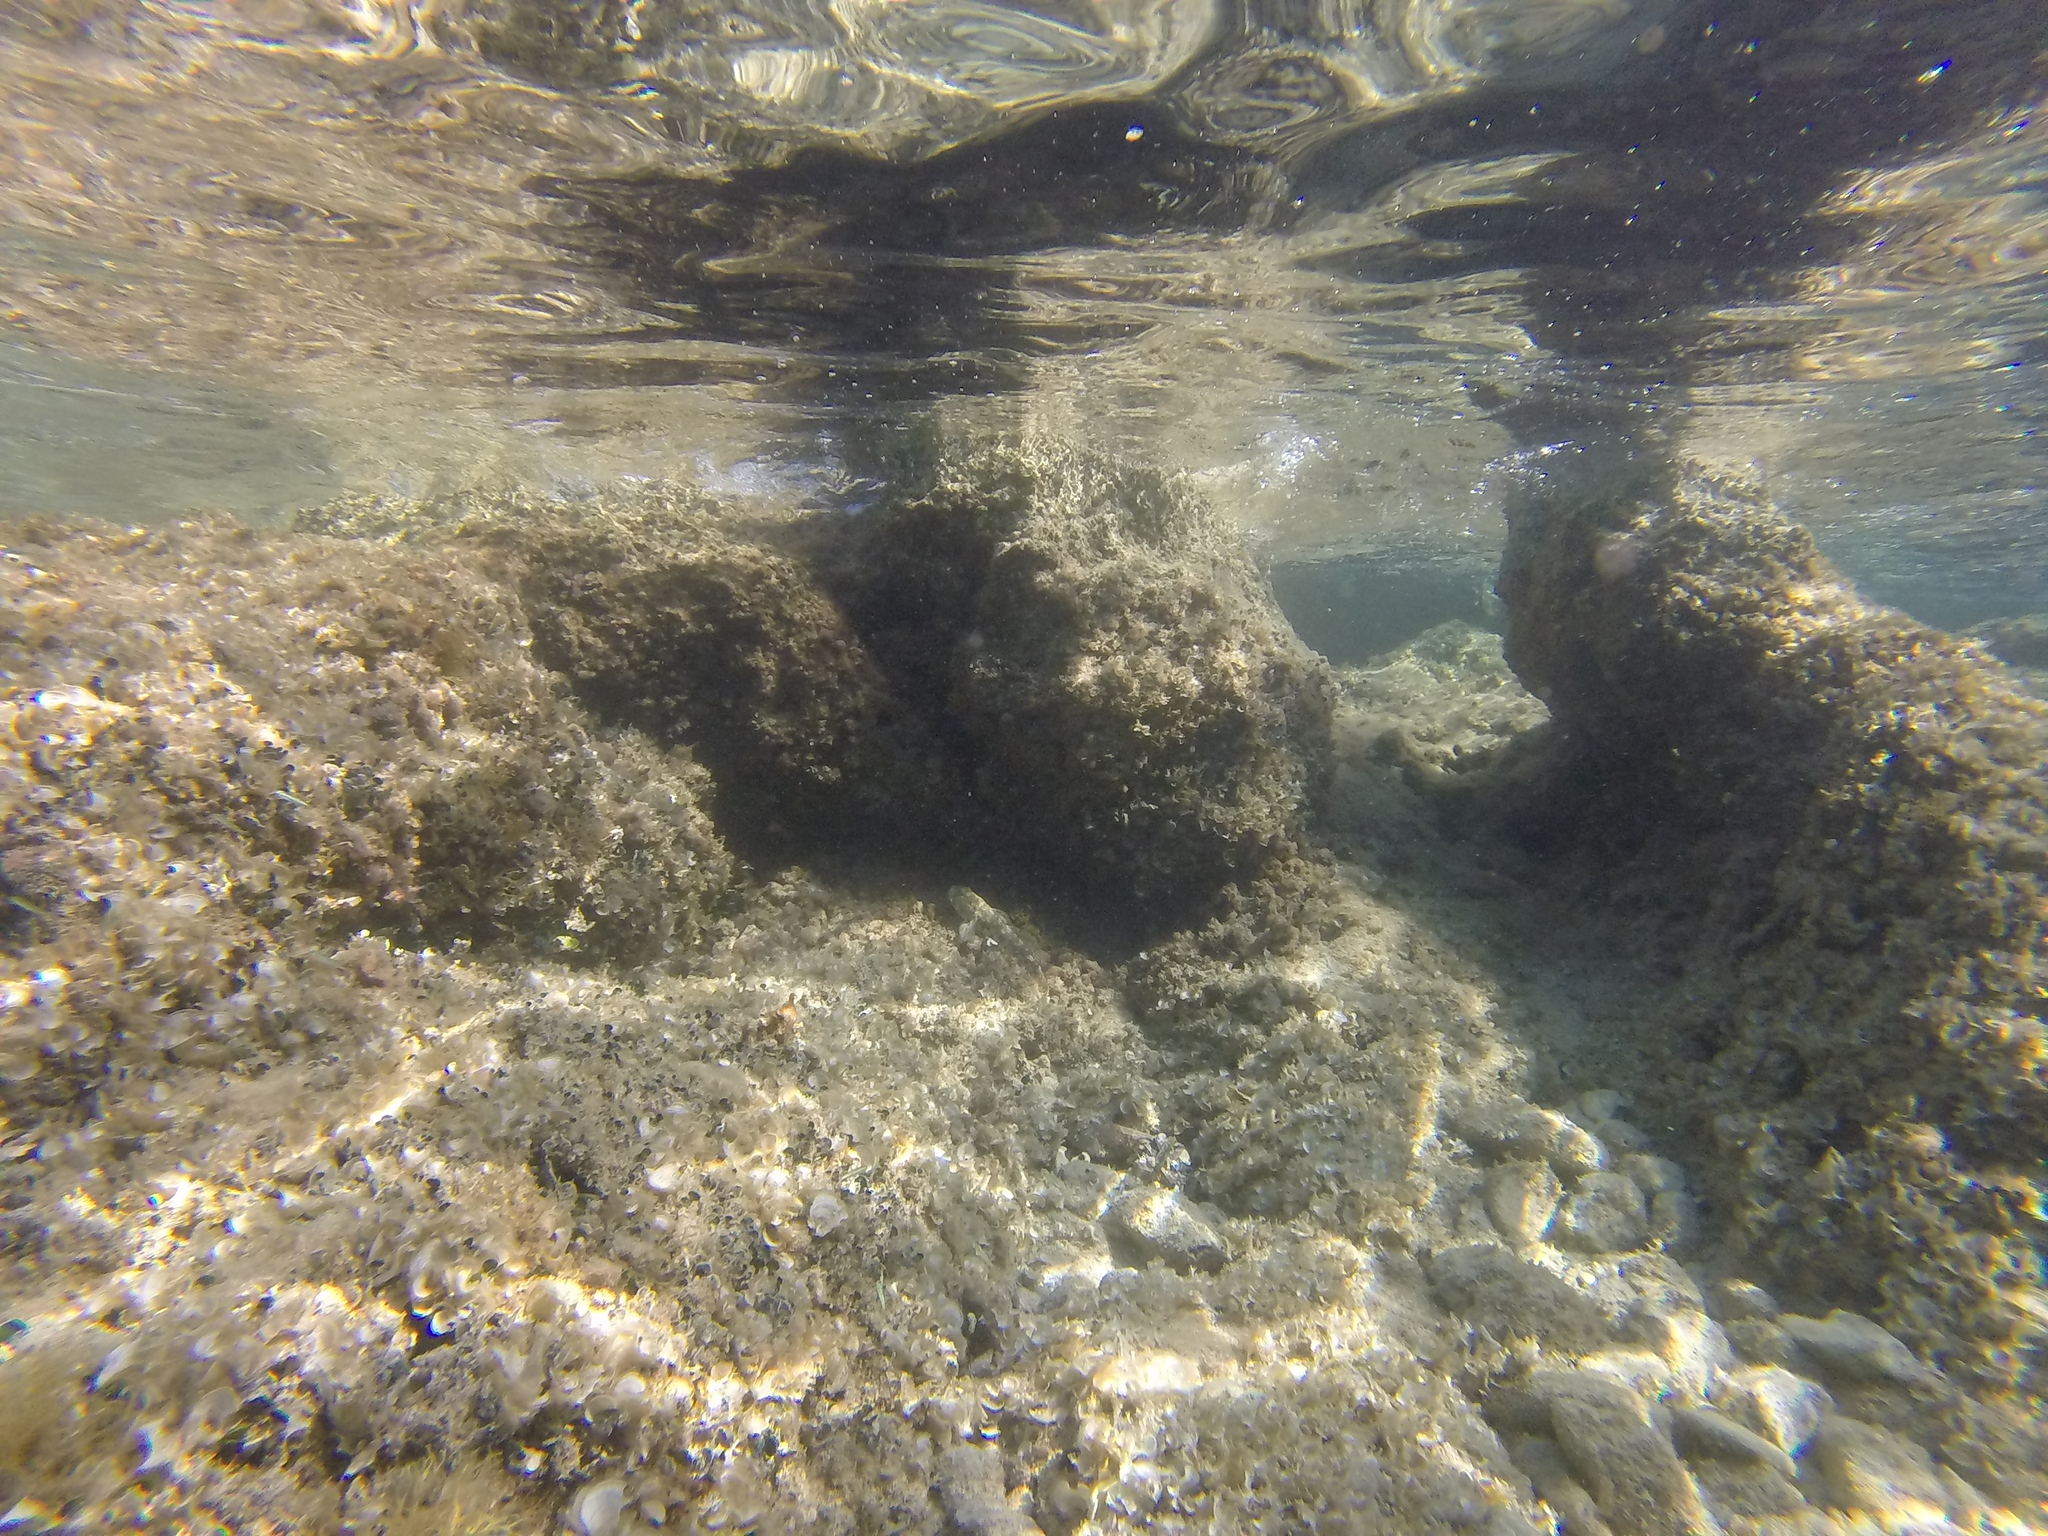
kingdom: Animalia
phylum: Chordata
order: Perciformes
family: Gobiidae
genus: Gobius
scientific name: Gobius cobitis
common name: Giant goby
